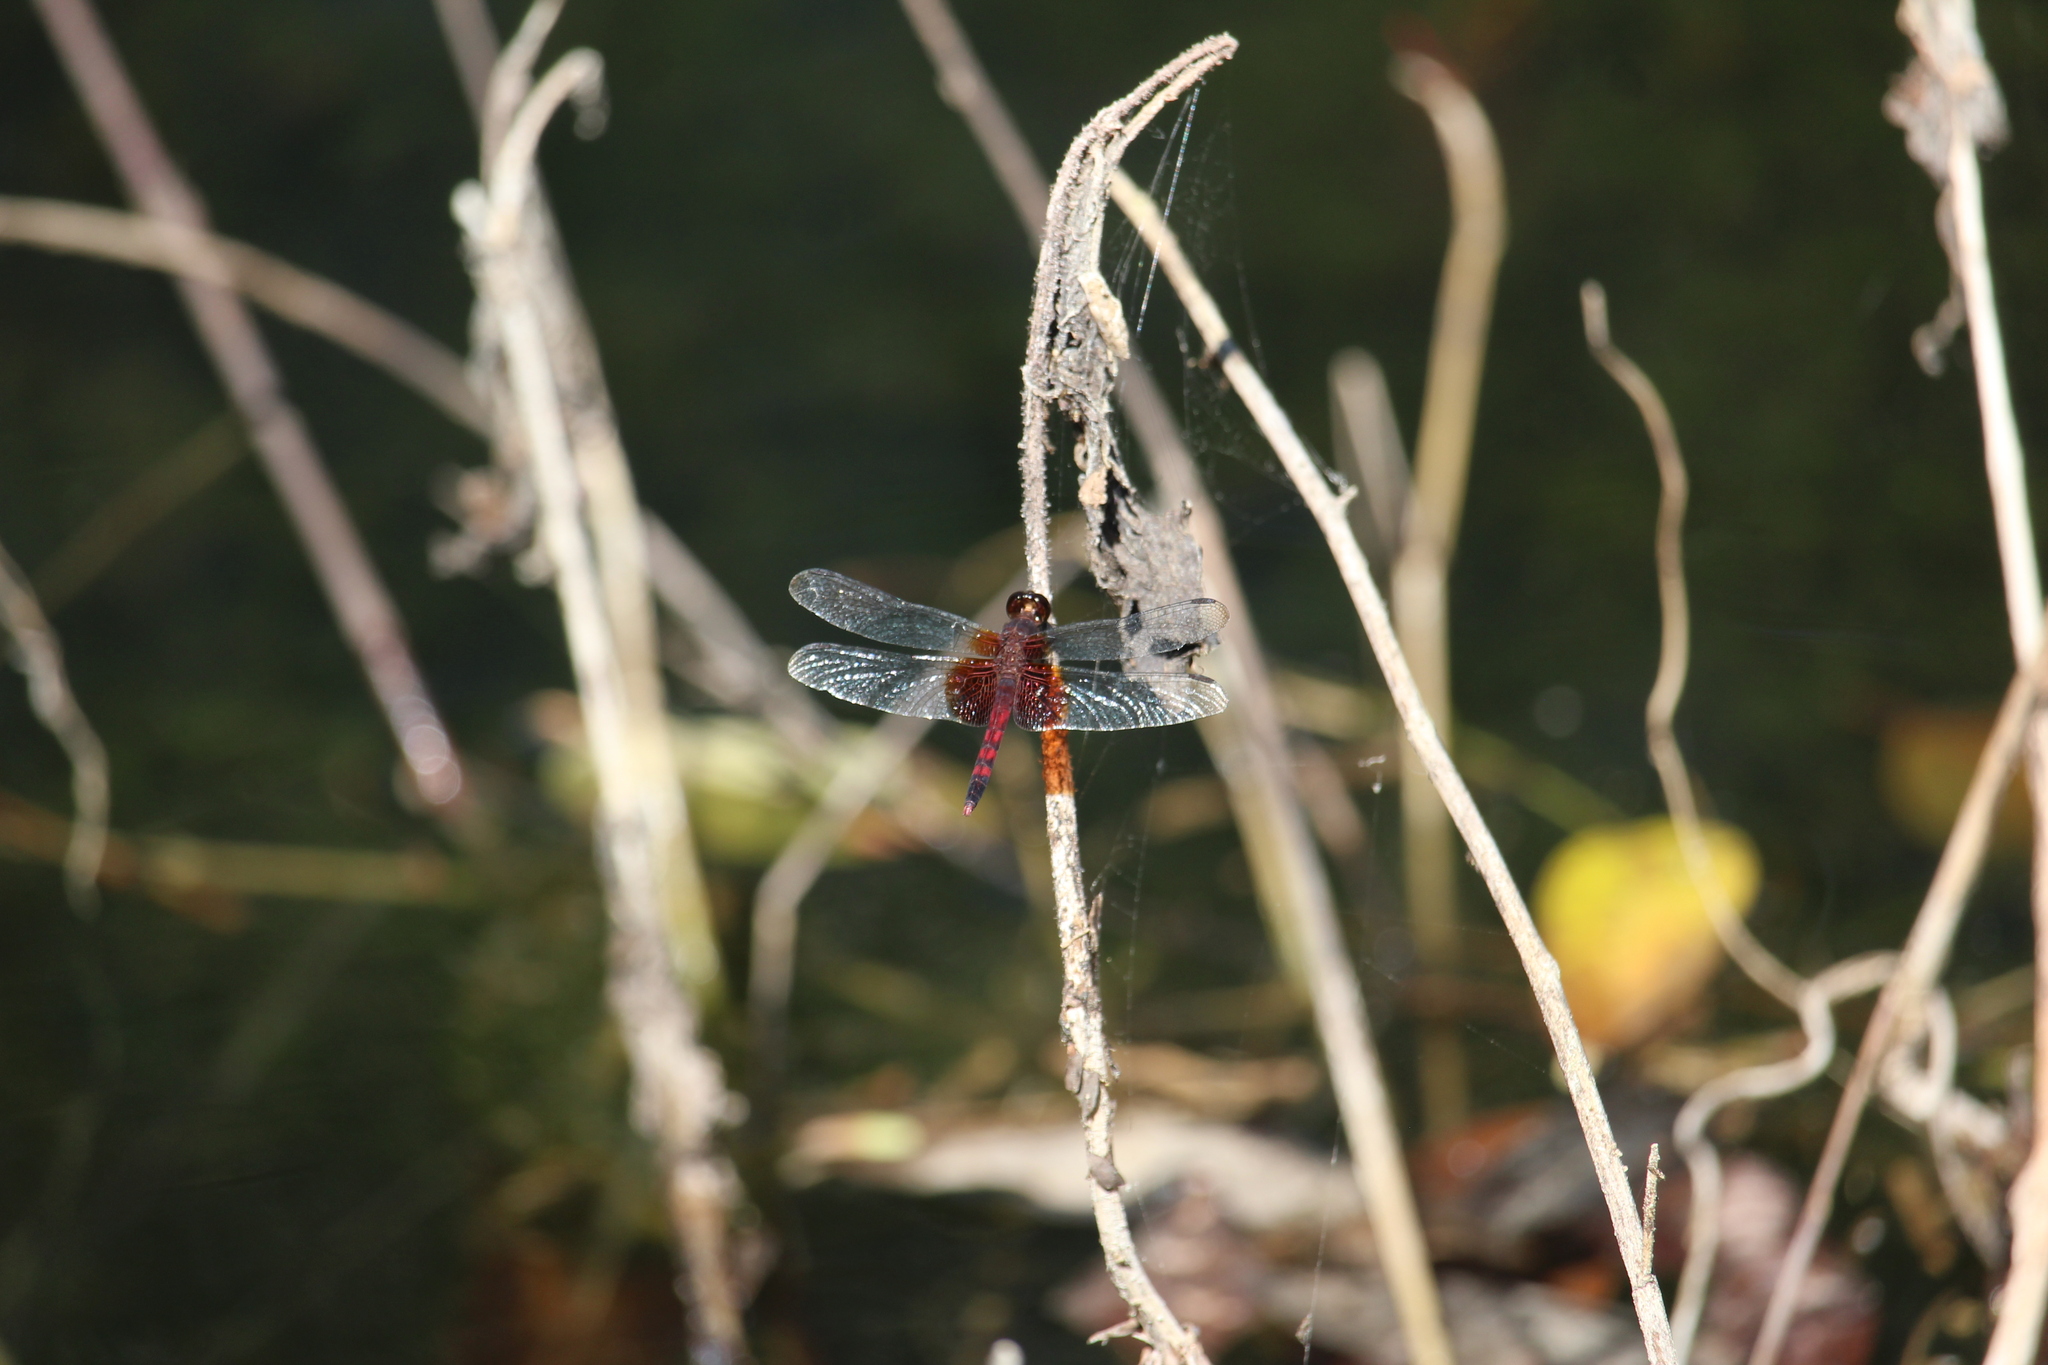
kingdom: Animalia
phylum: Arthropoda
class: Insecta
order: Odonata
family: Libellulidae
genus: Erythrodiplax
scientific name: Erythrodiplax fervida
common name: Red-mantled dragonlet
